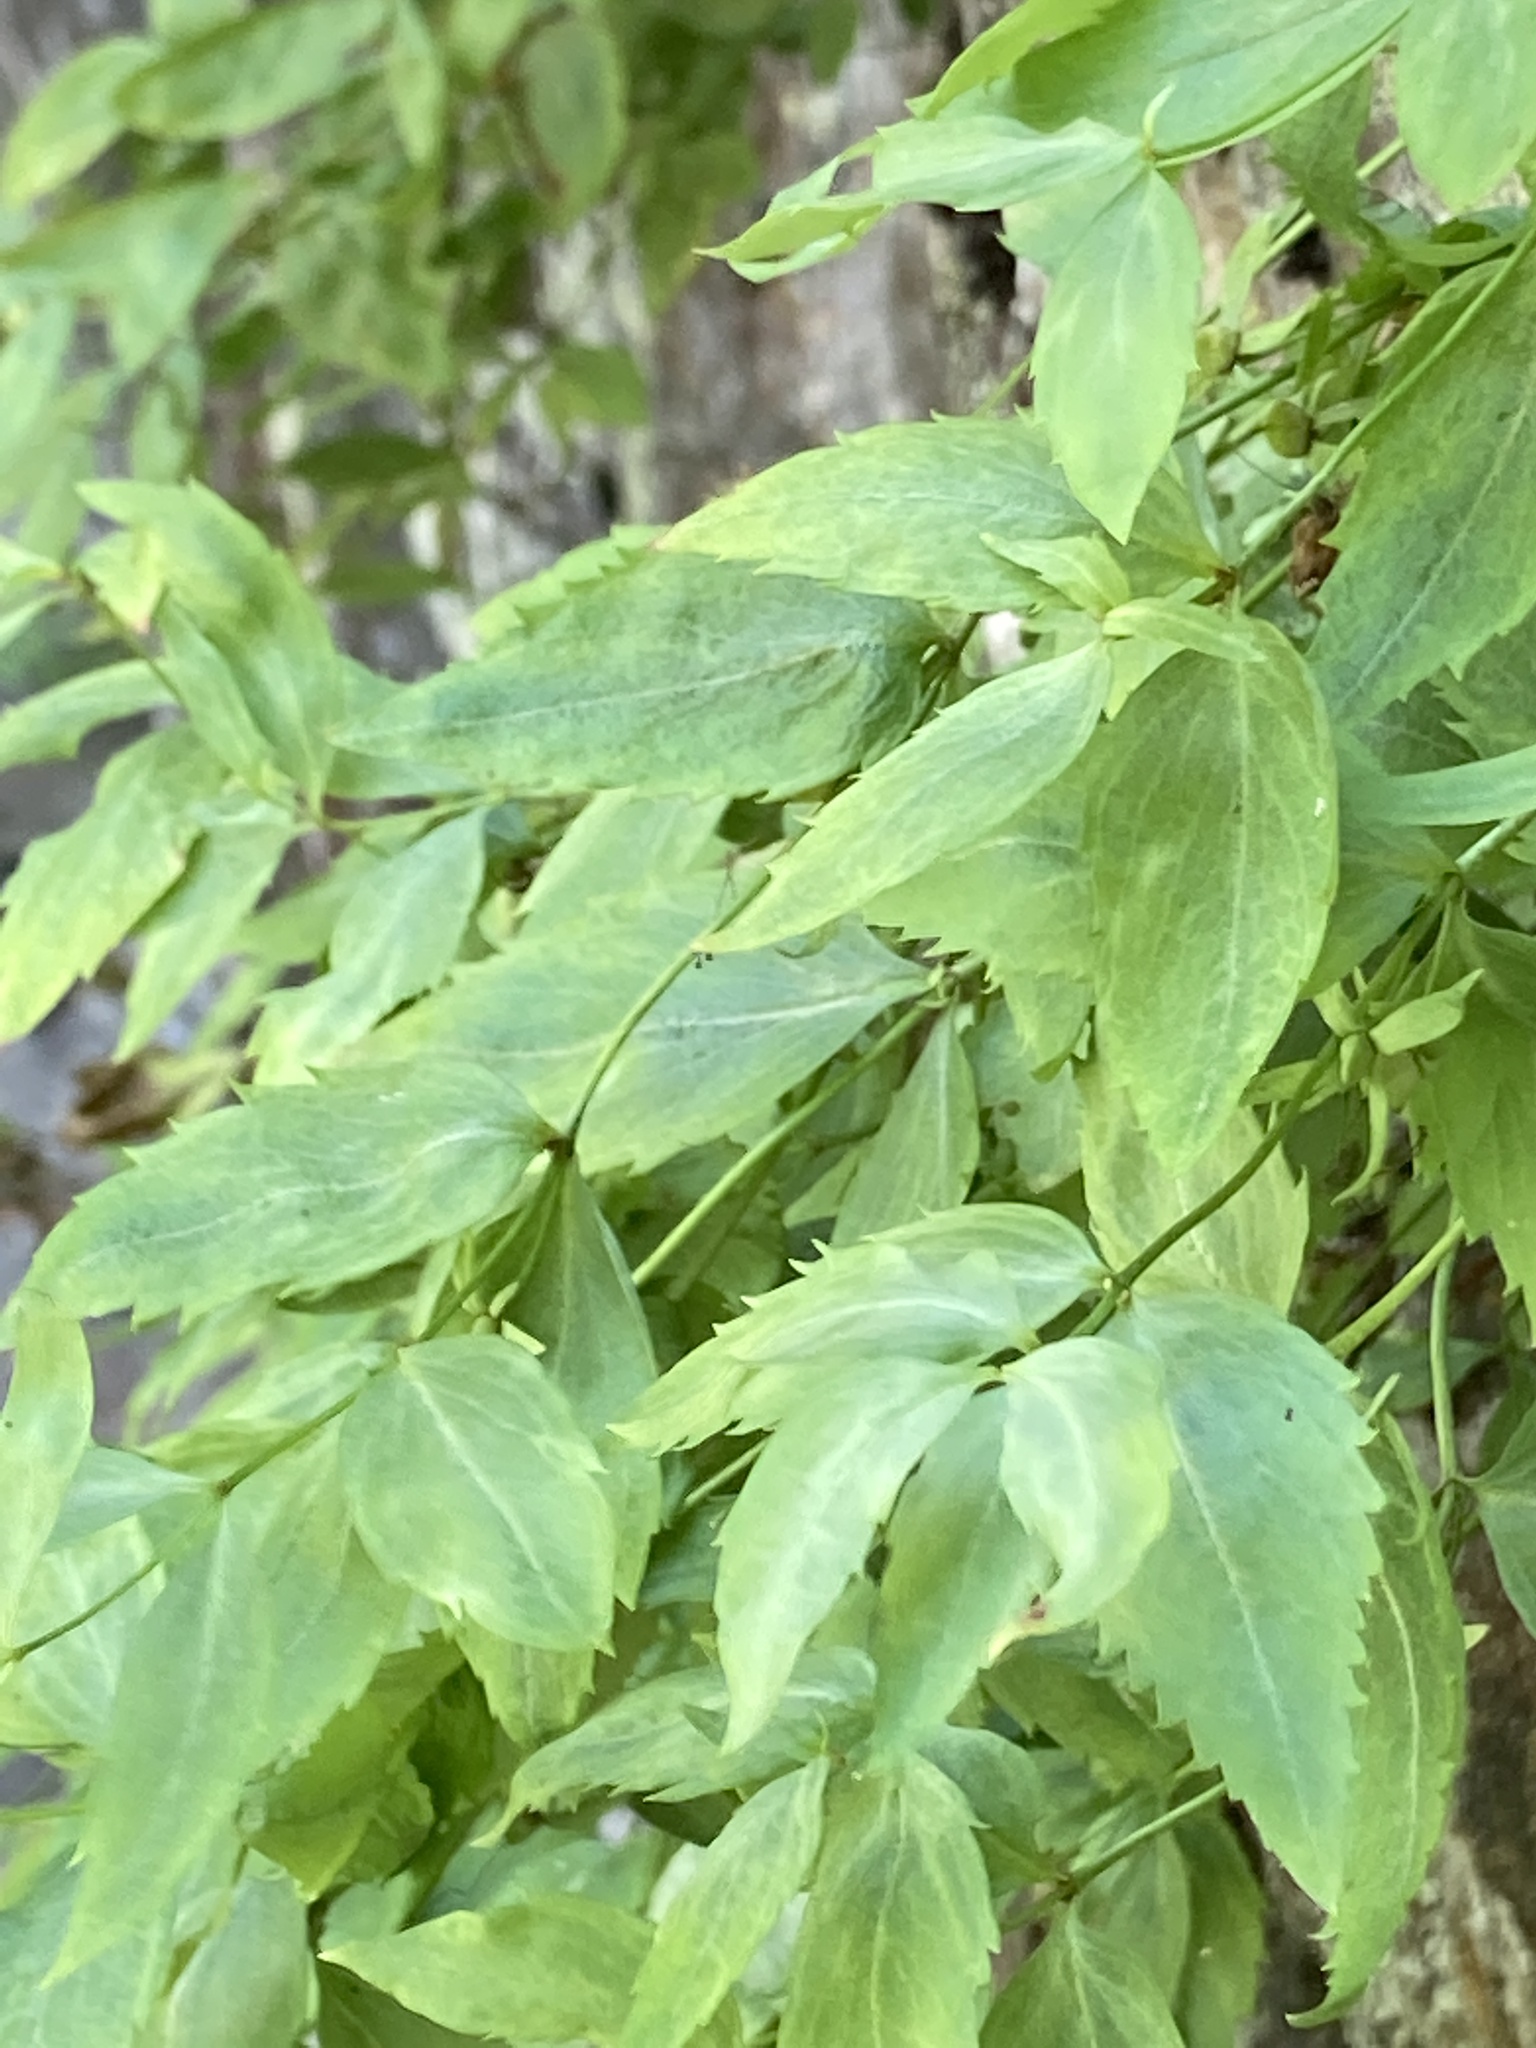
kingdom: Plantae
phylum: Tracheophyta
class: Magnoliopsida
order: Lamiales
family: Plantaginaceae
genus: Veronica
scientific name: Veronica pontica
